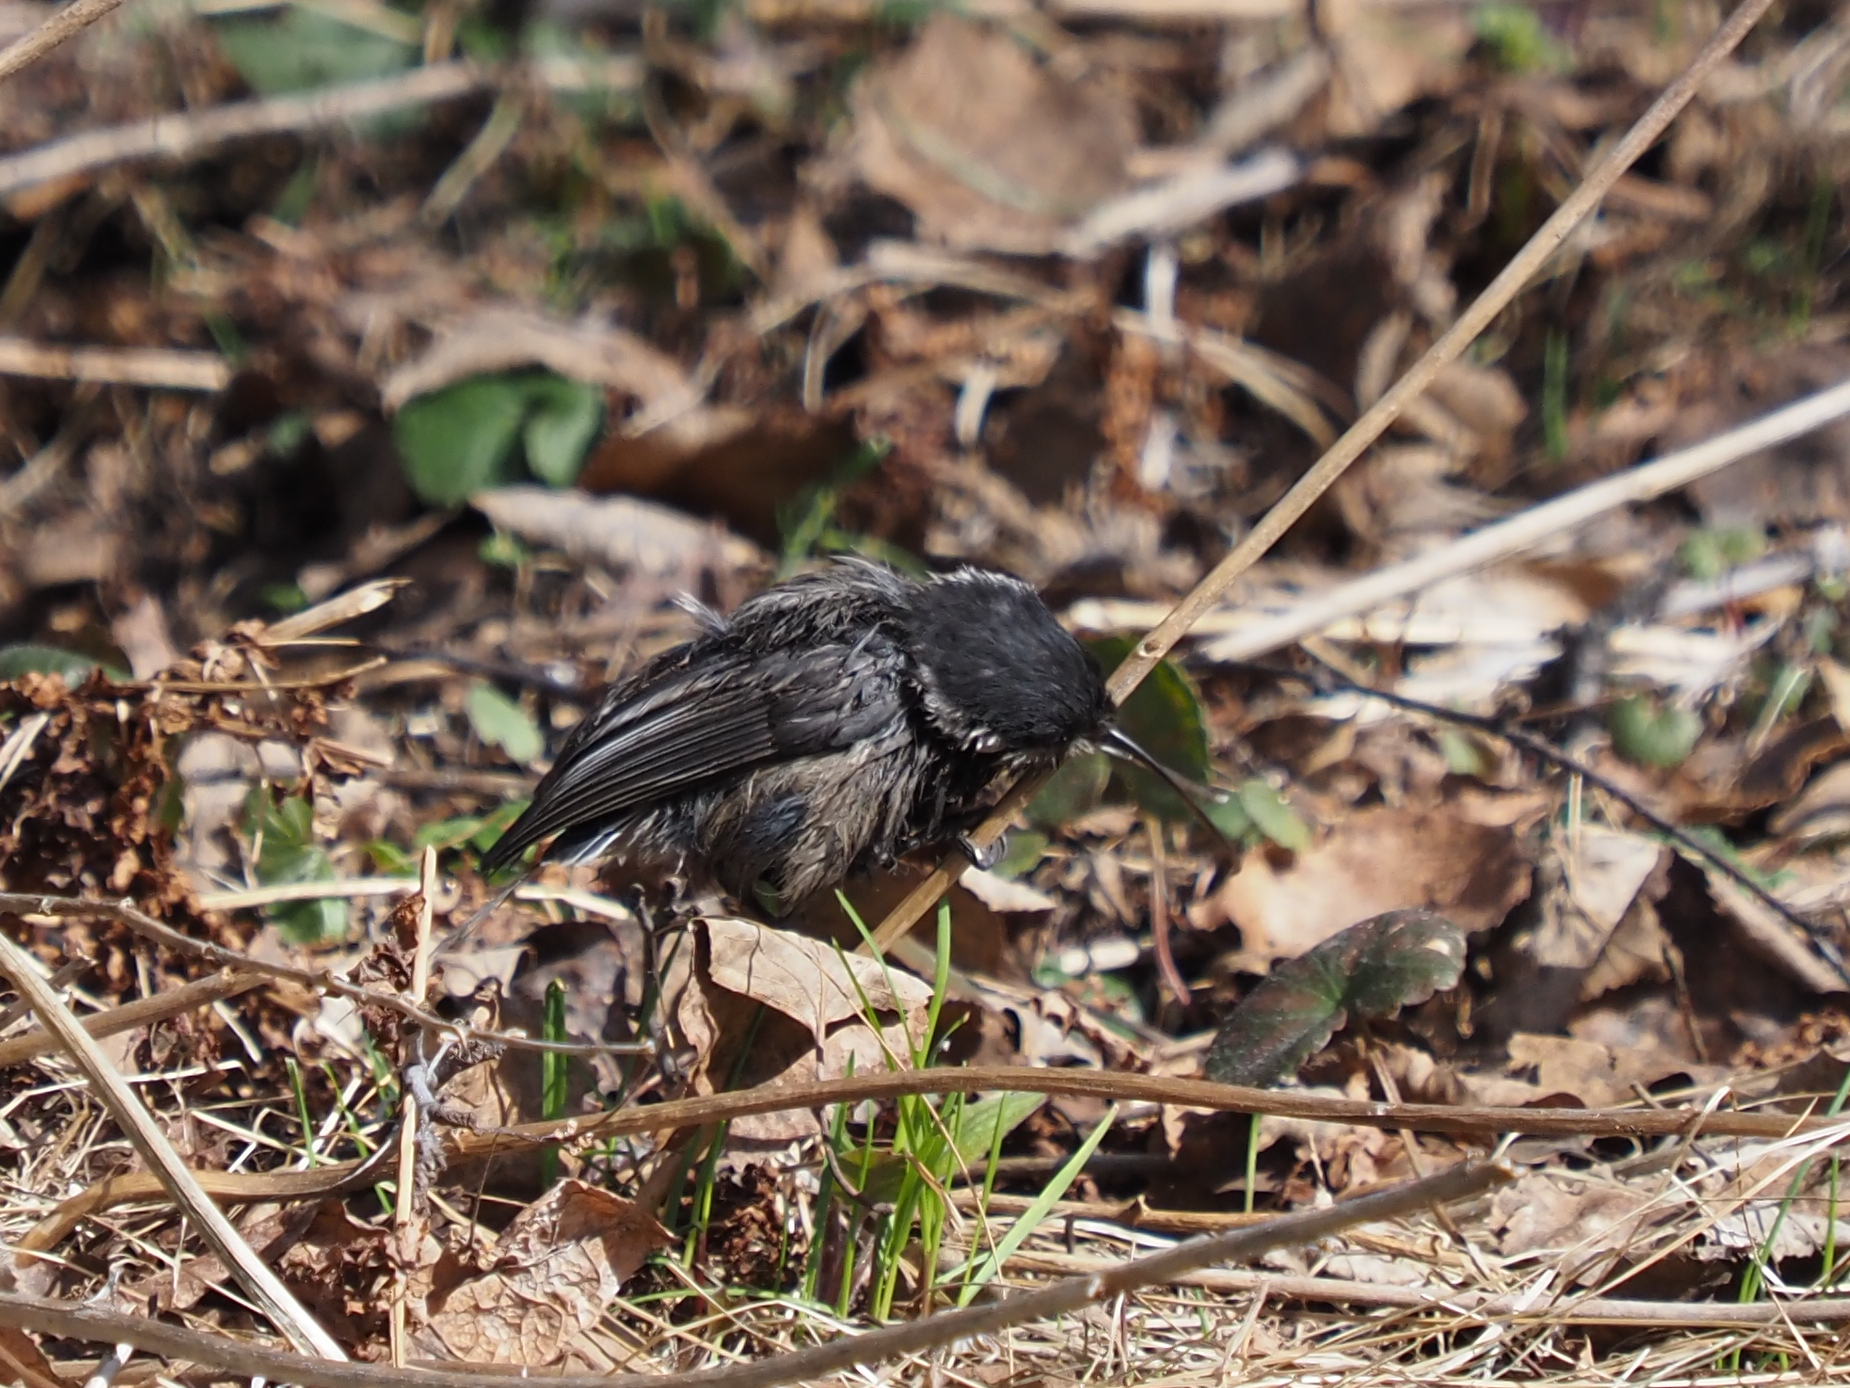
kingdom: Animalia
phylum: Chordata
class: Aves
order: Passeriformes
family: Paridae
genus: Poecile
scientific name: Poecile atricapillus
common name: Black-capped chickadee
